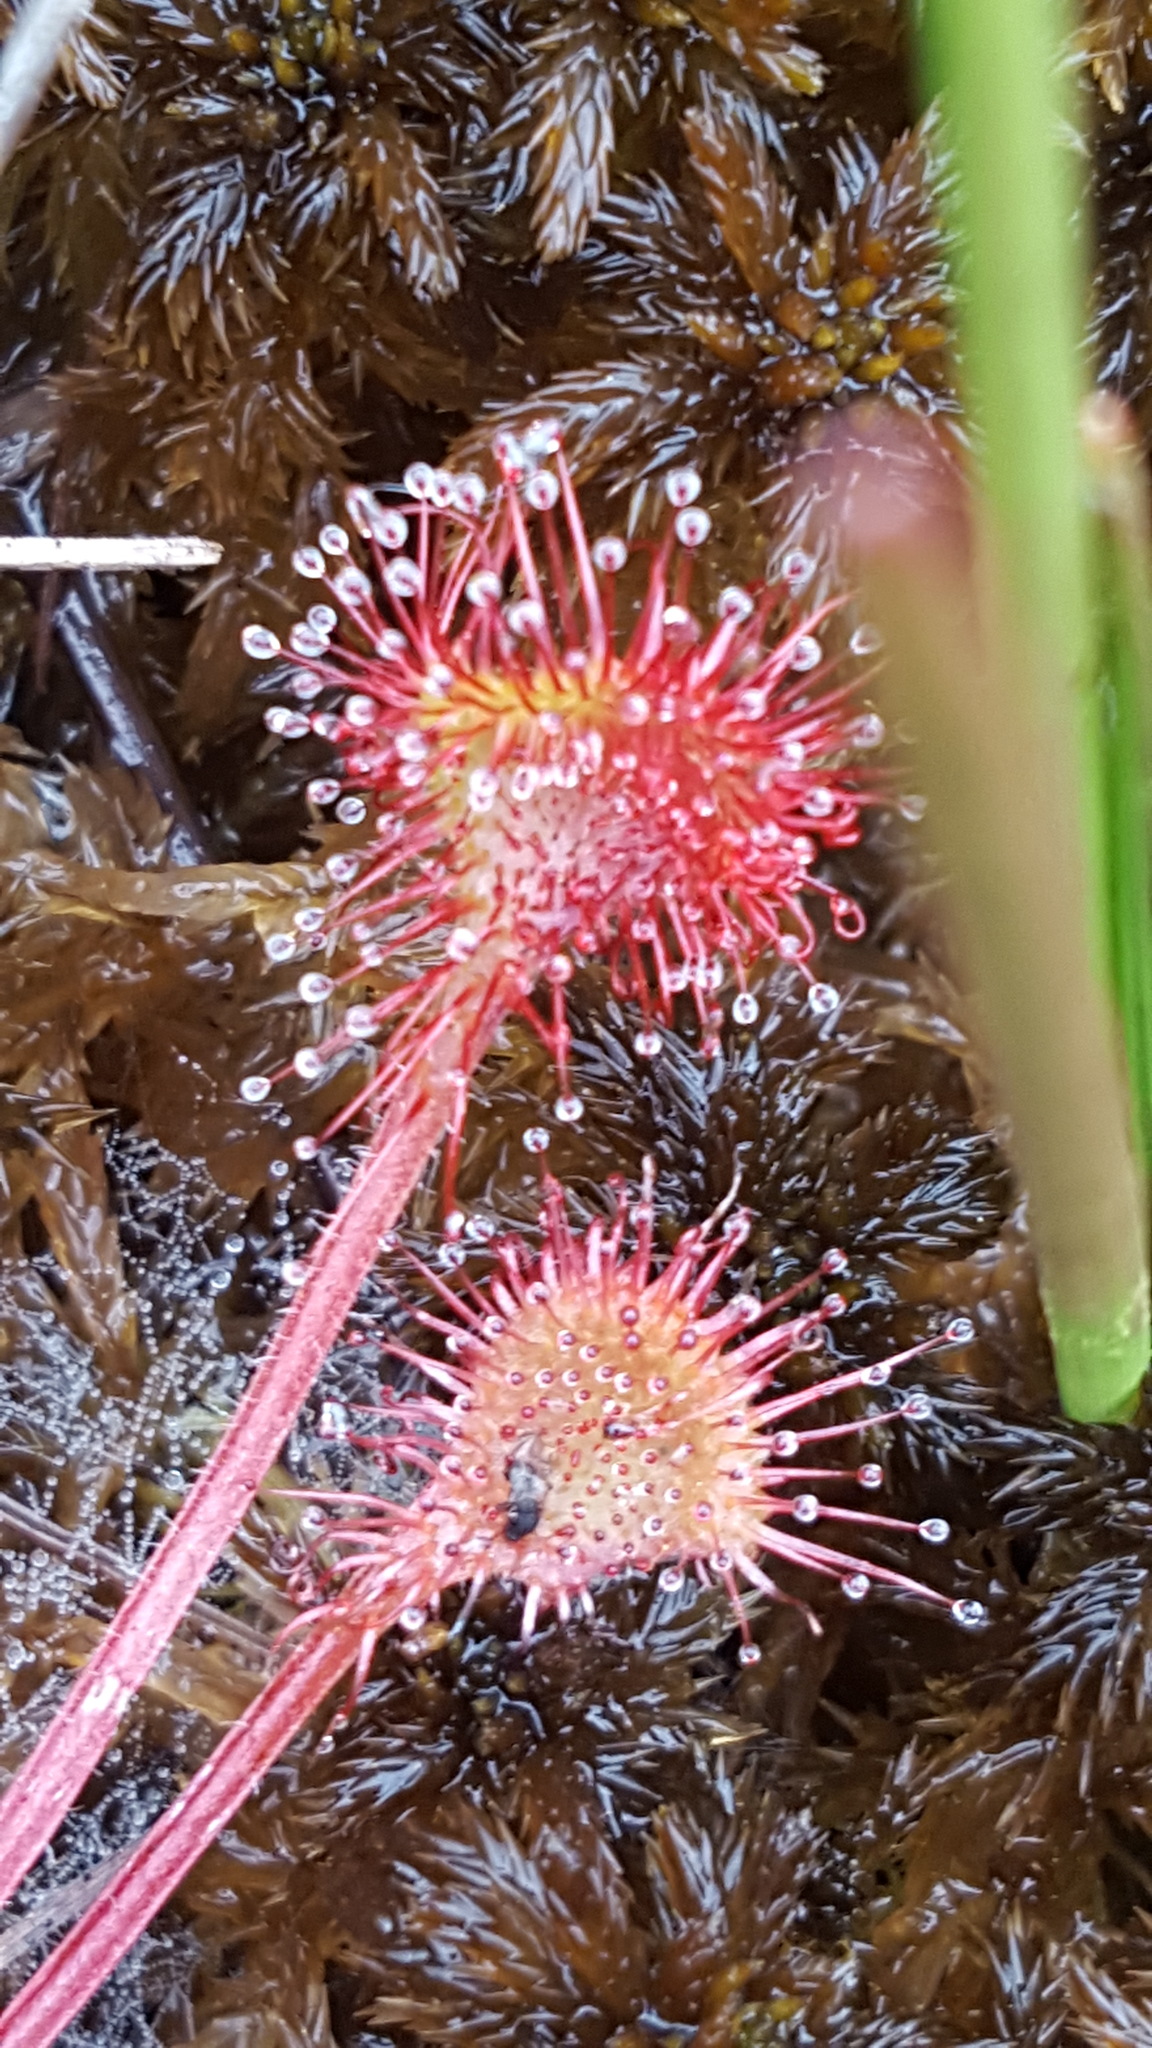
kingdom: Plantae
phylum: Tracheophyta
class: Magnoliopsida
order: Caryophyllales
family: Droseraceae
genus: Drosera
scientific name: Drosera rotundifolia
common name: Round-leaved sundew
